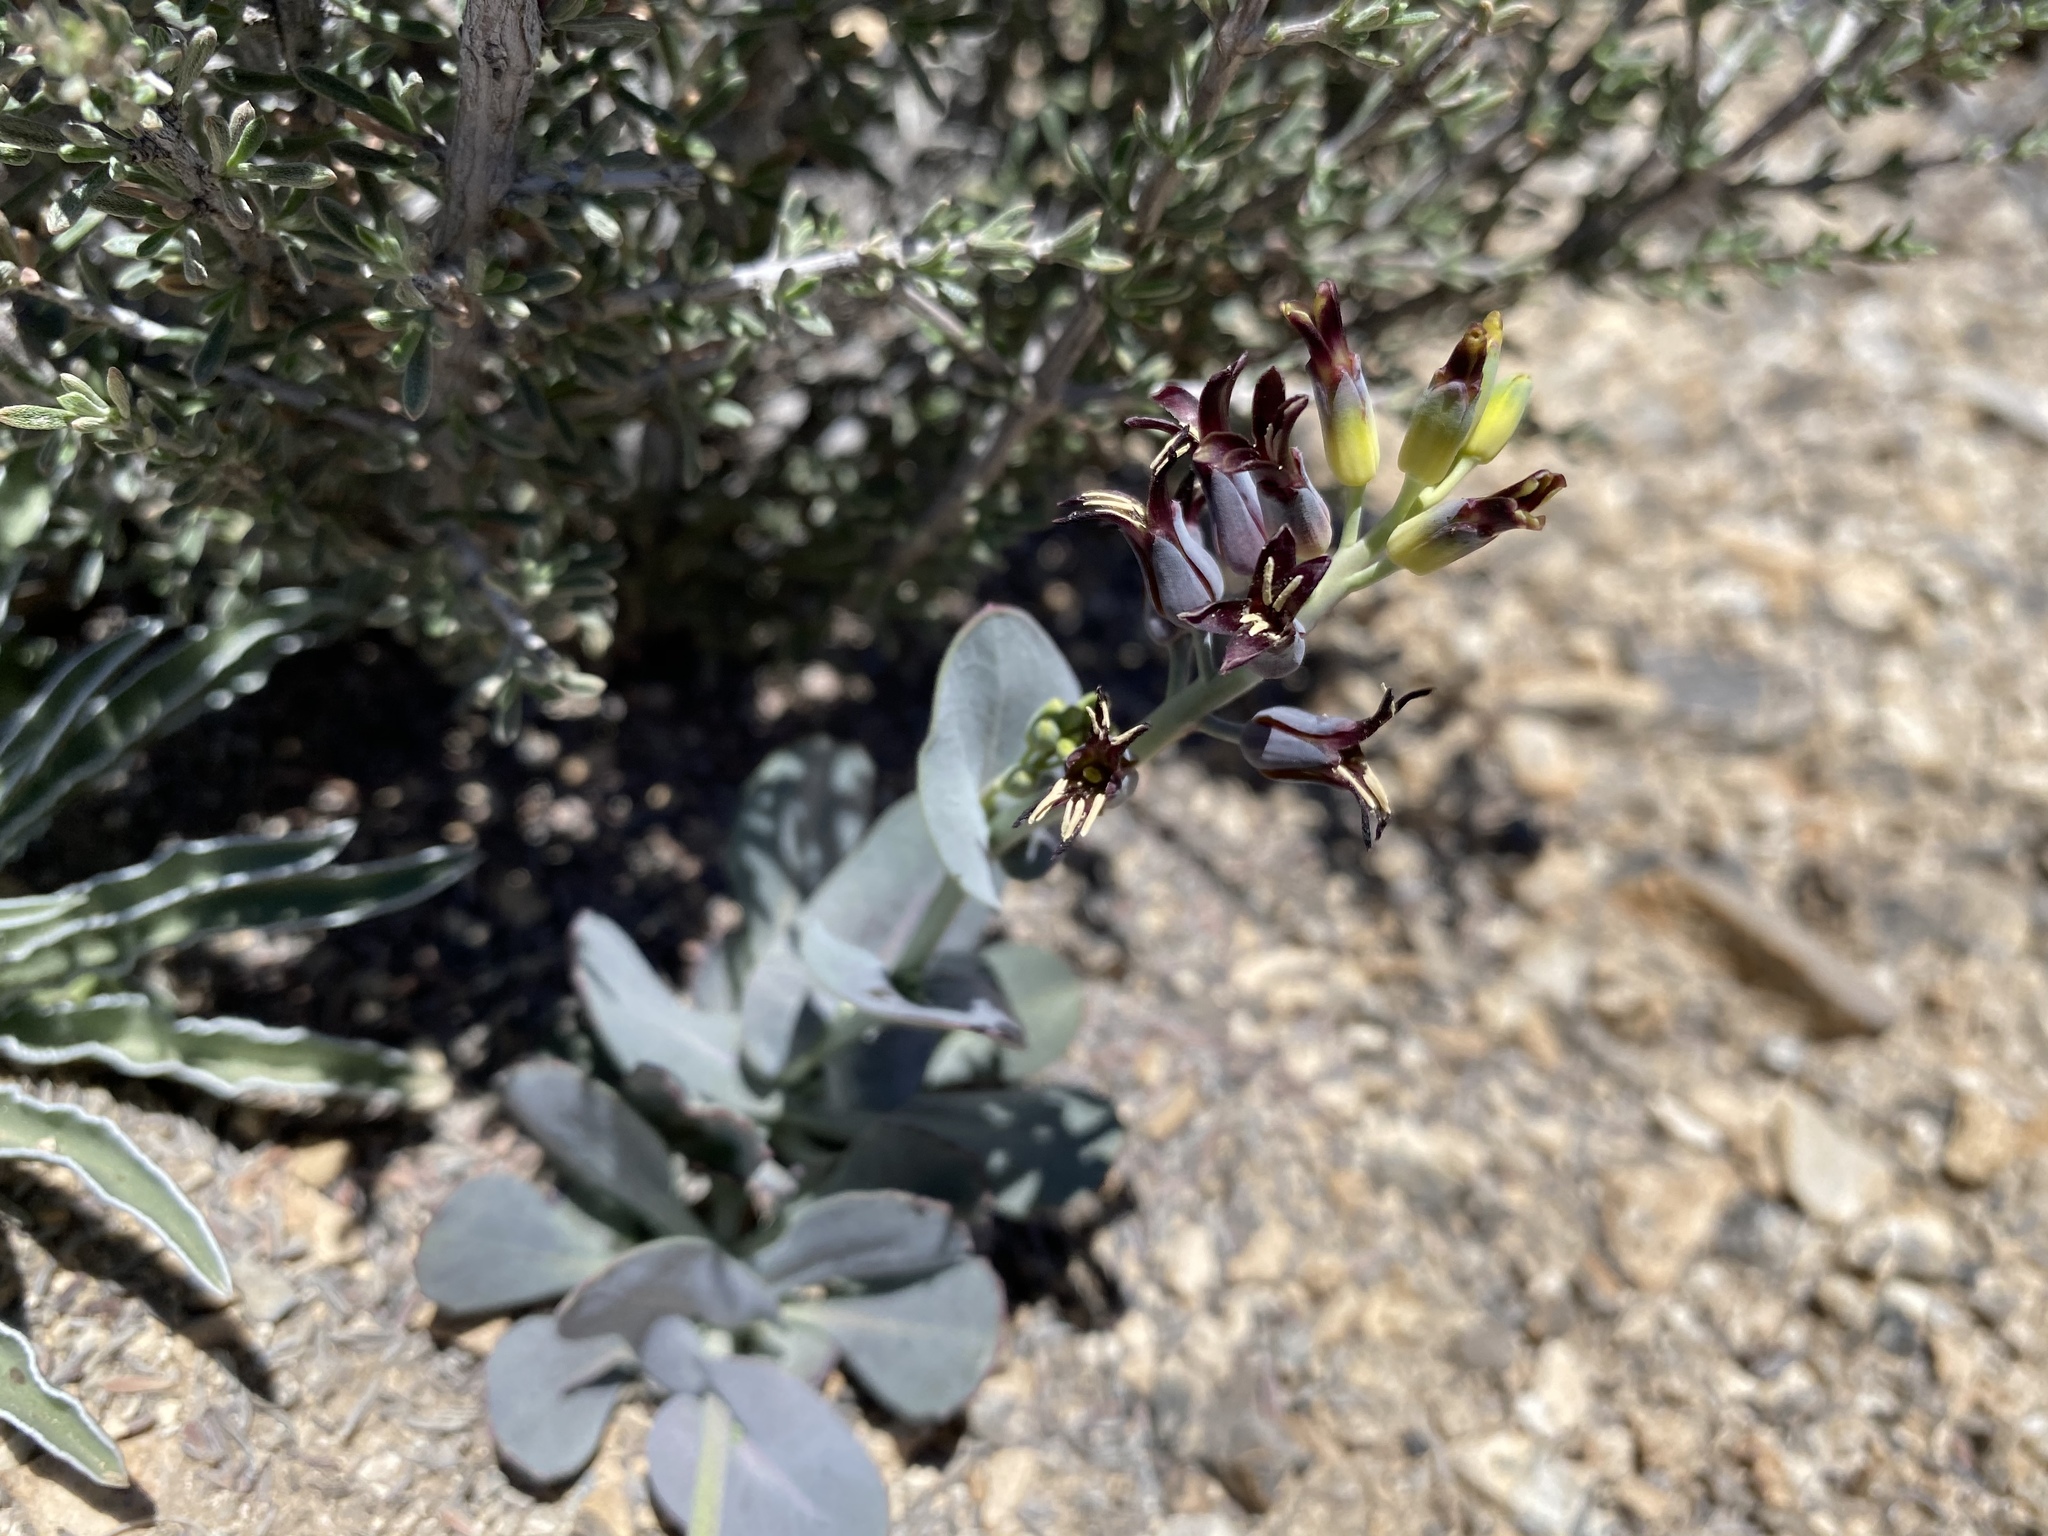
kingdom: Plantae
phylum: Tracheophyta
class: Magnoliopsida
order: Brassicales
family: Brassicaceae
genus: Streptanthus
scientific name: Streptanthus cordatus
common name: Heart-leaf jewel-flower
